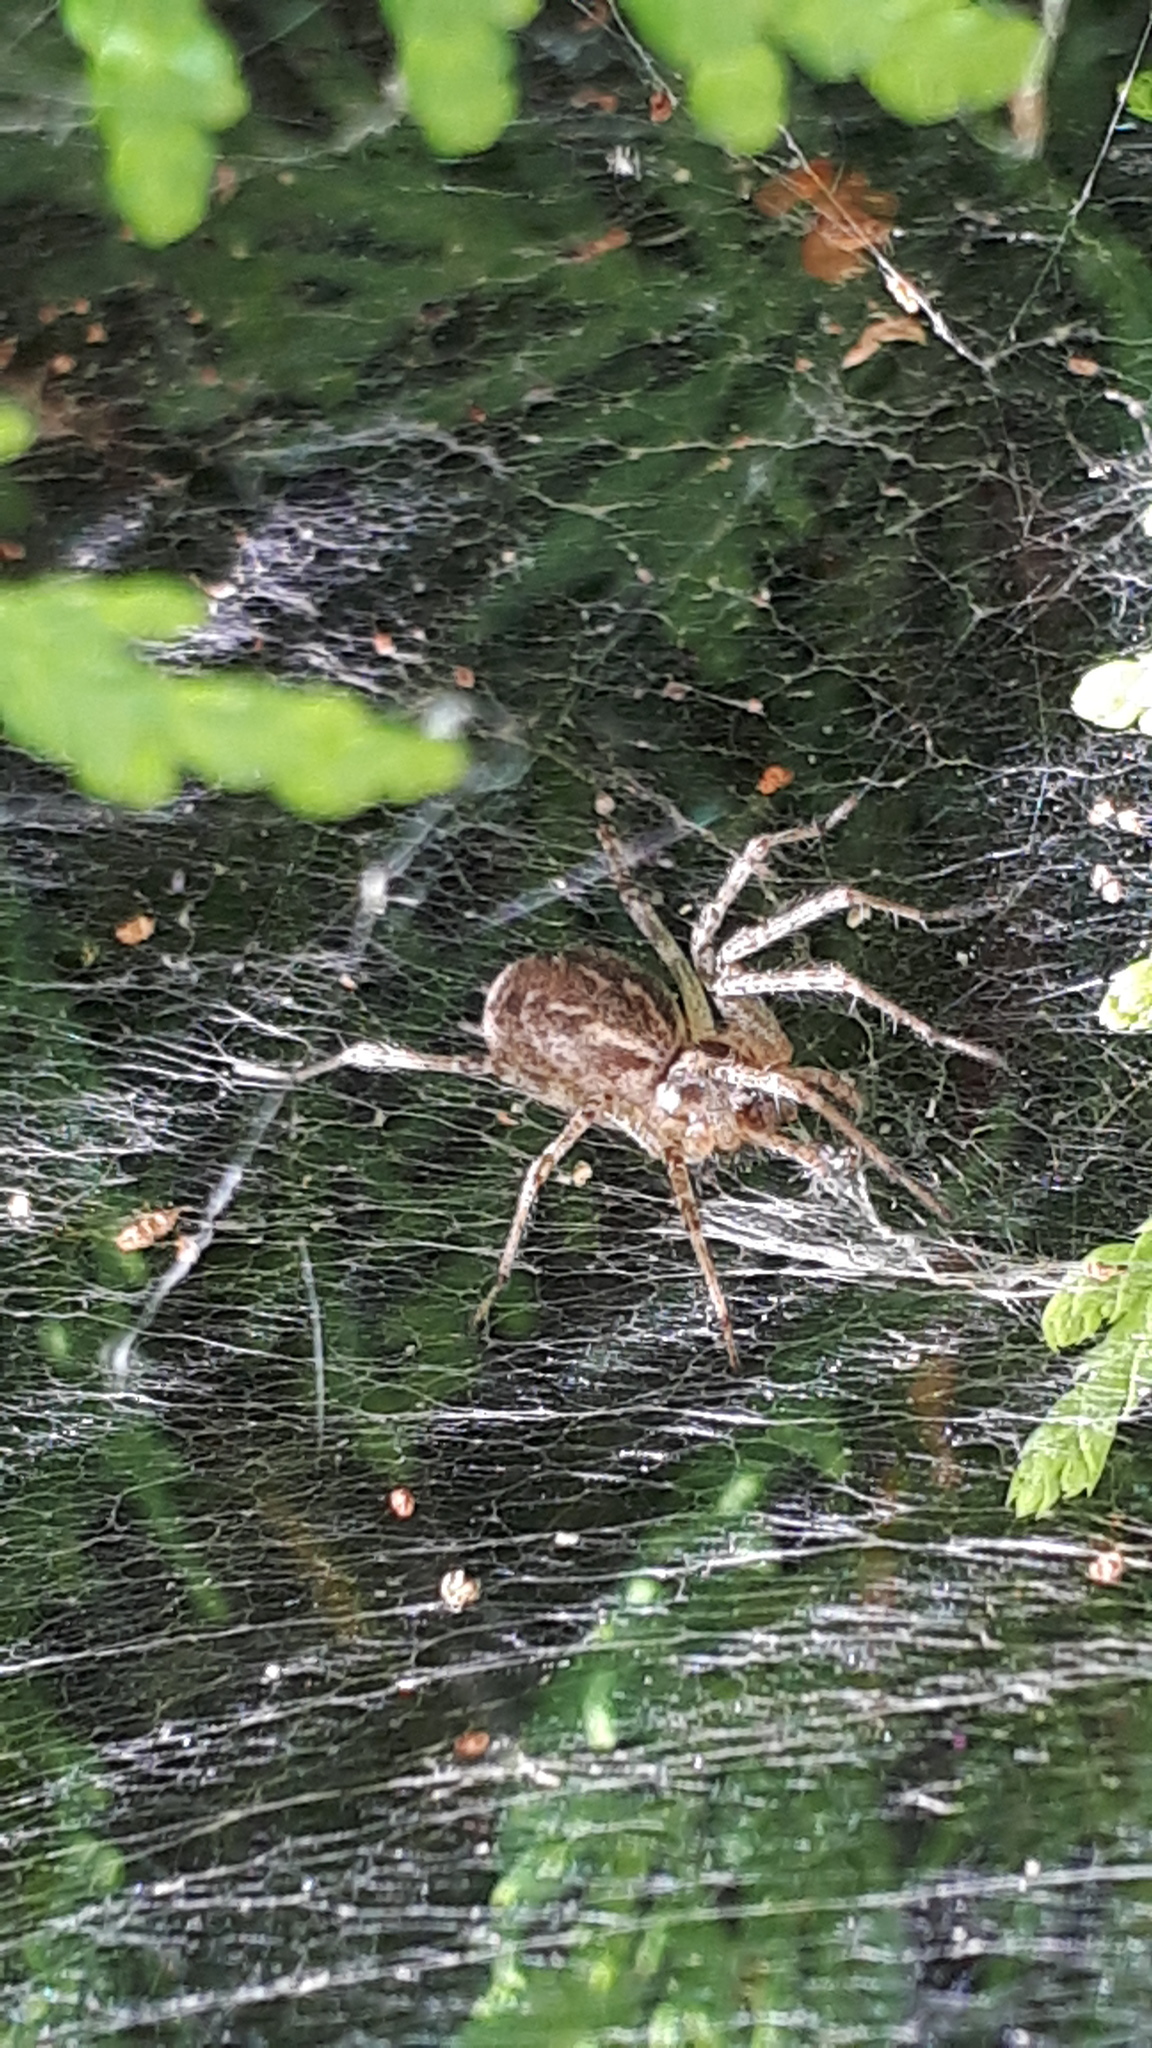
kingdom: Animalia
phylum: Arthropoda
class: Arachnida
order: Araneae
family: Agelenidae
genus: Allagelena
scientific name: Allagelena gracilens
